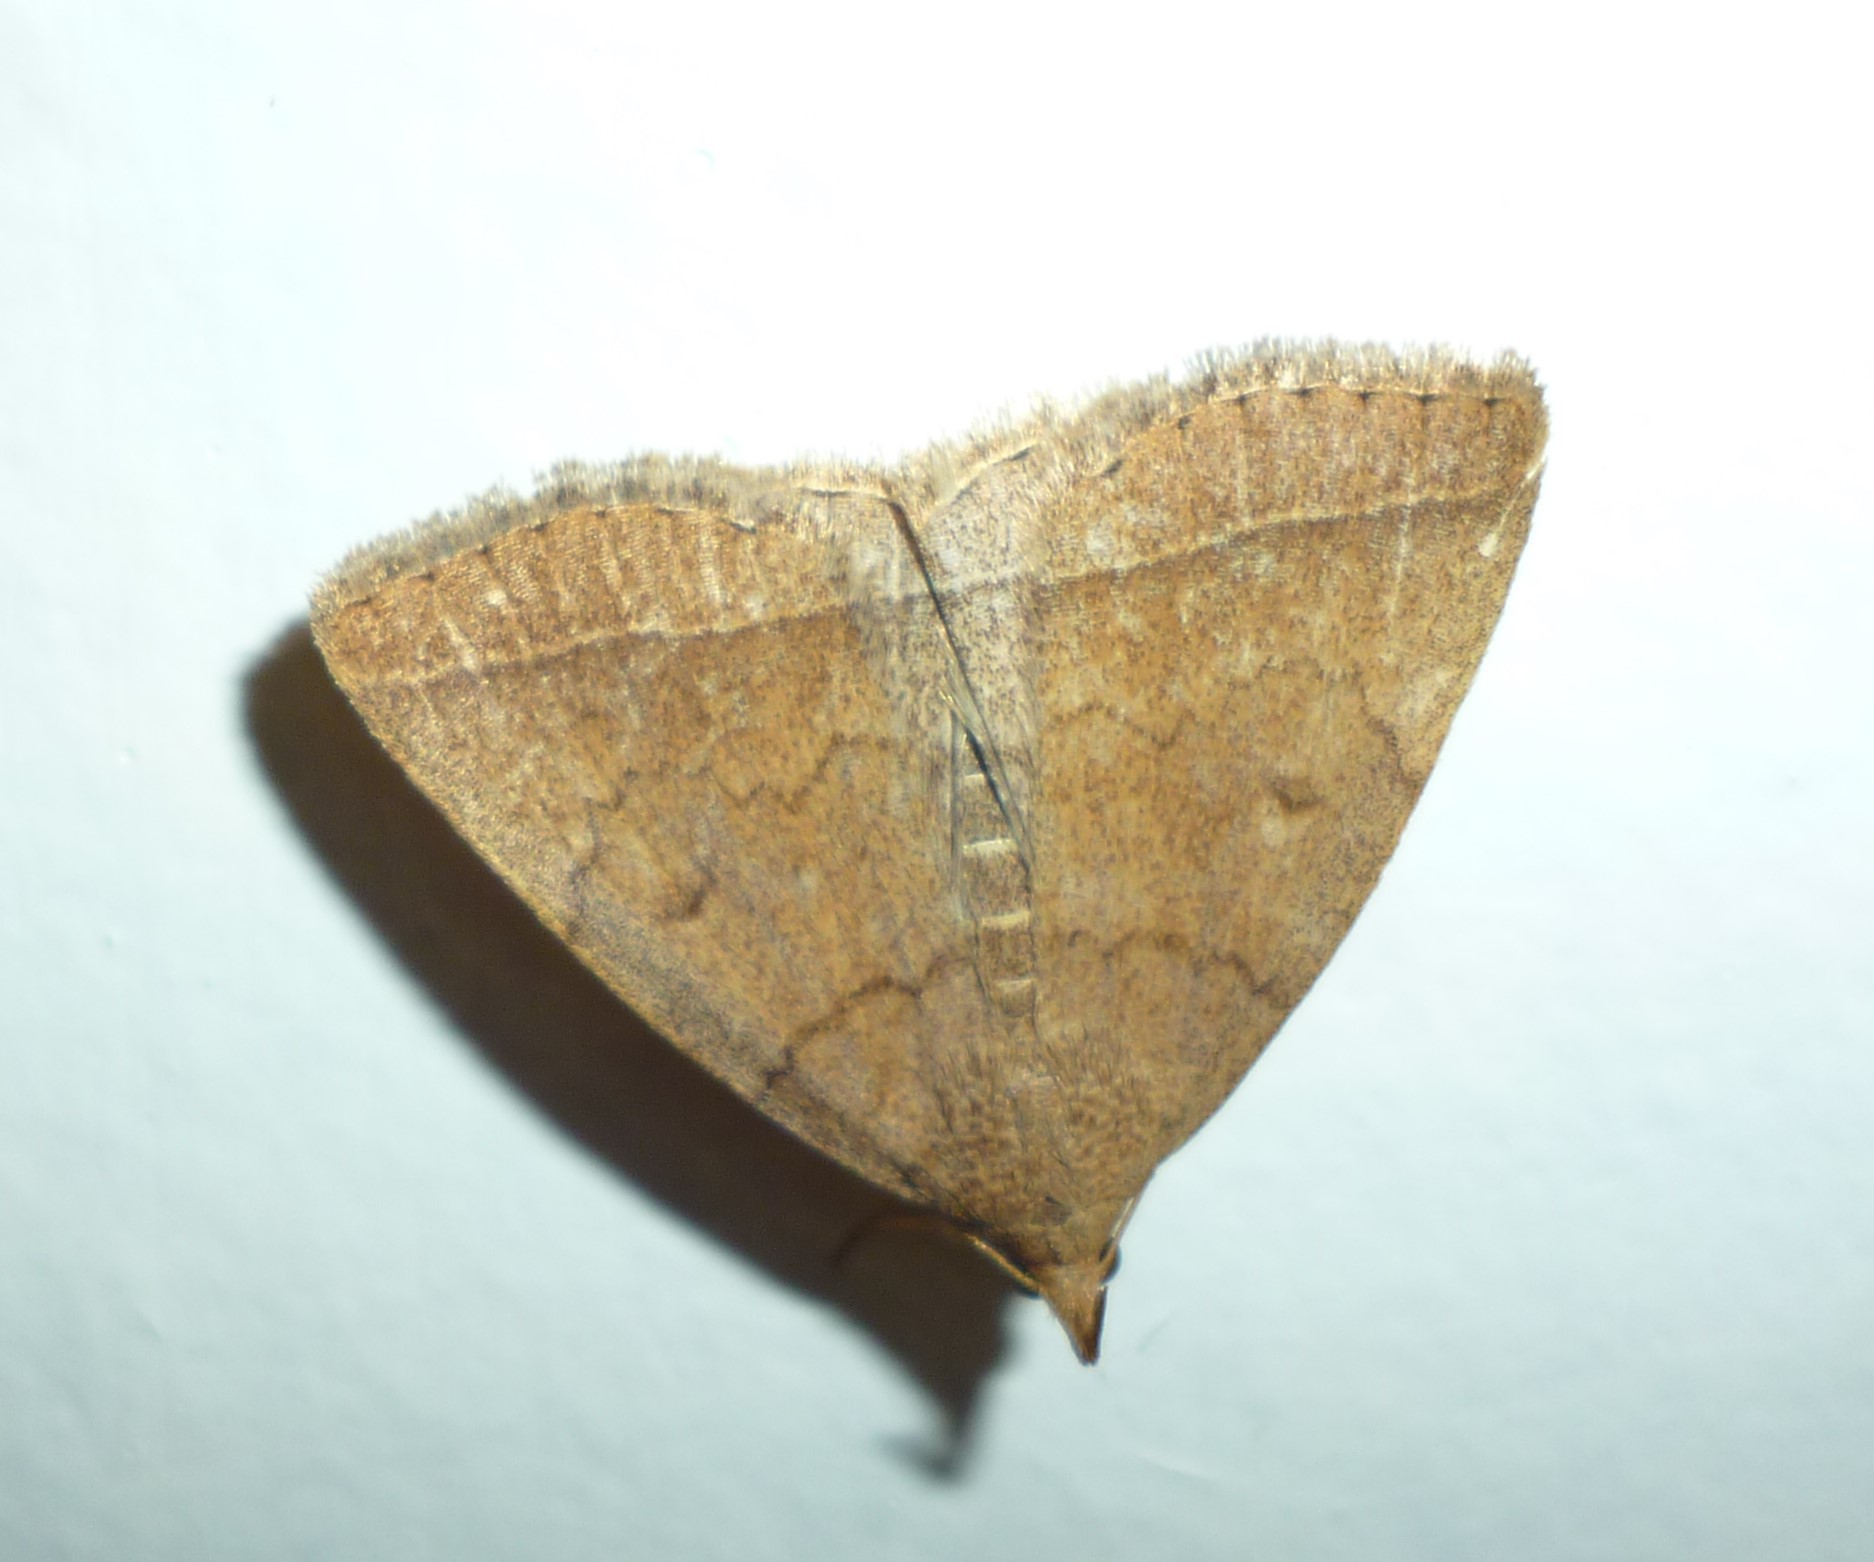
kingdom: Animalia
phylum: Arthropoda
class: Insecta
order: Lepidoptera
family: Erebidae
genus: Zanclognatha
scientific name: Zanclognatha jacchusalis
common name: Yellowish zanclognatha
